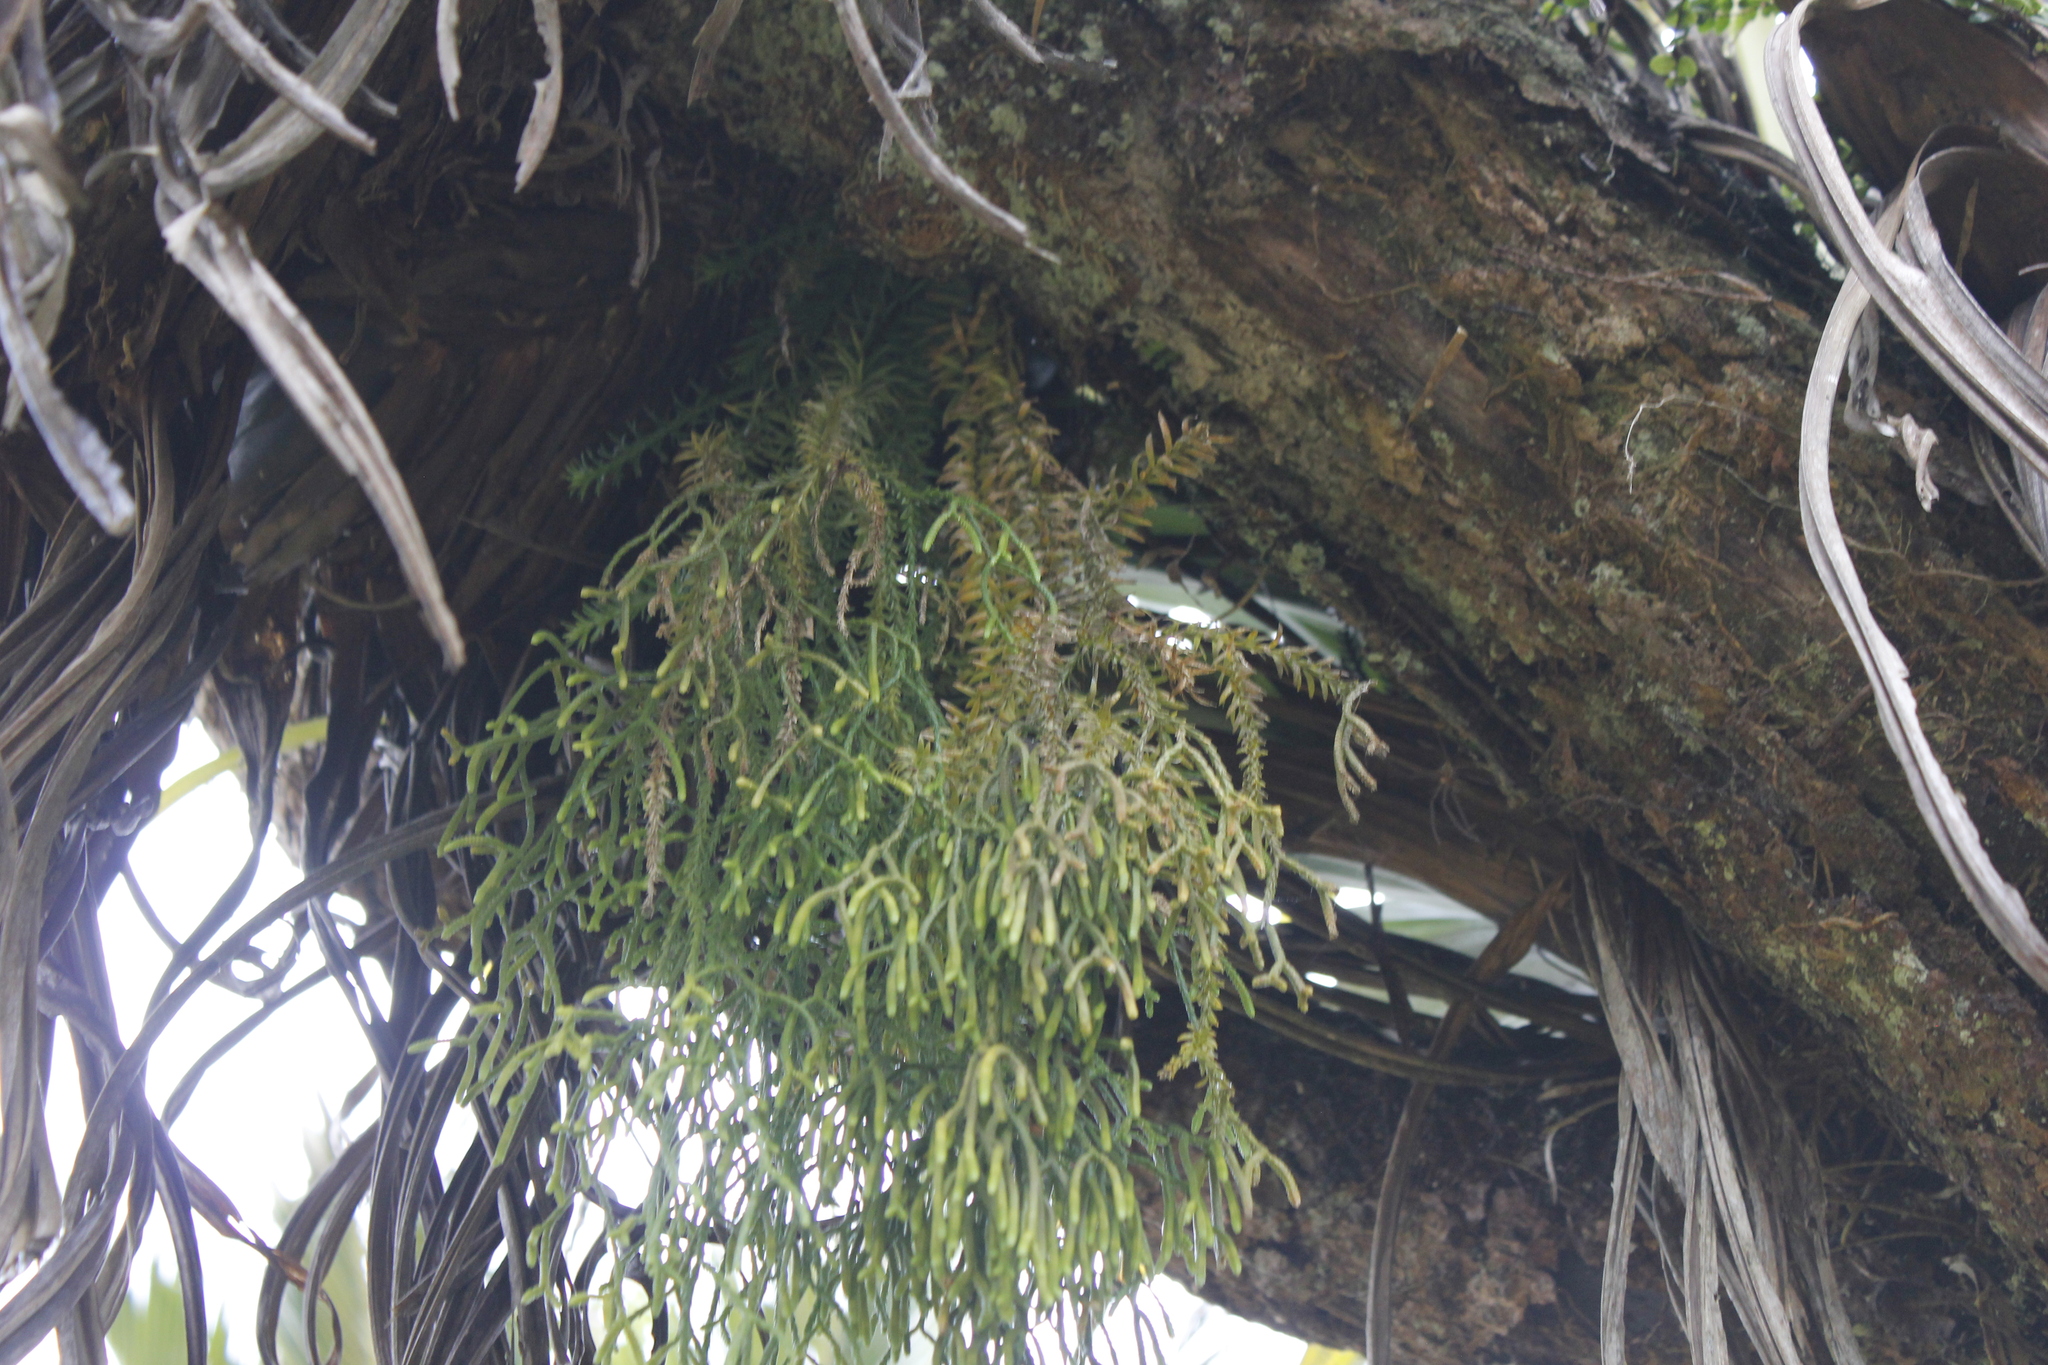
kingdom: Plantae
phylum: Tracheophyta
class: Lycopodiopsida
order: Lycopodiales
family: Lycopodiaceae
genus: Phlegmariurus
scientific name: Phlegmariurus varius
